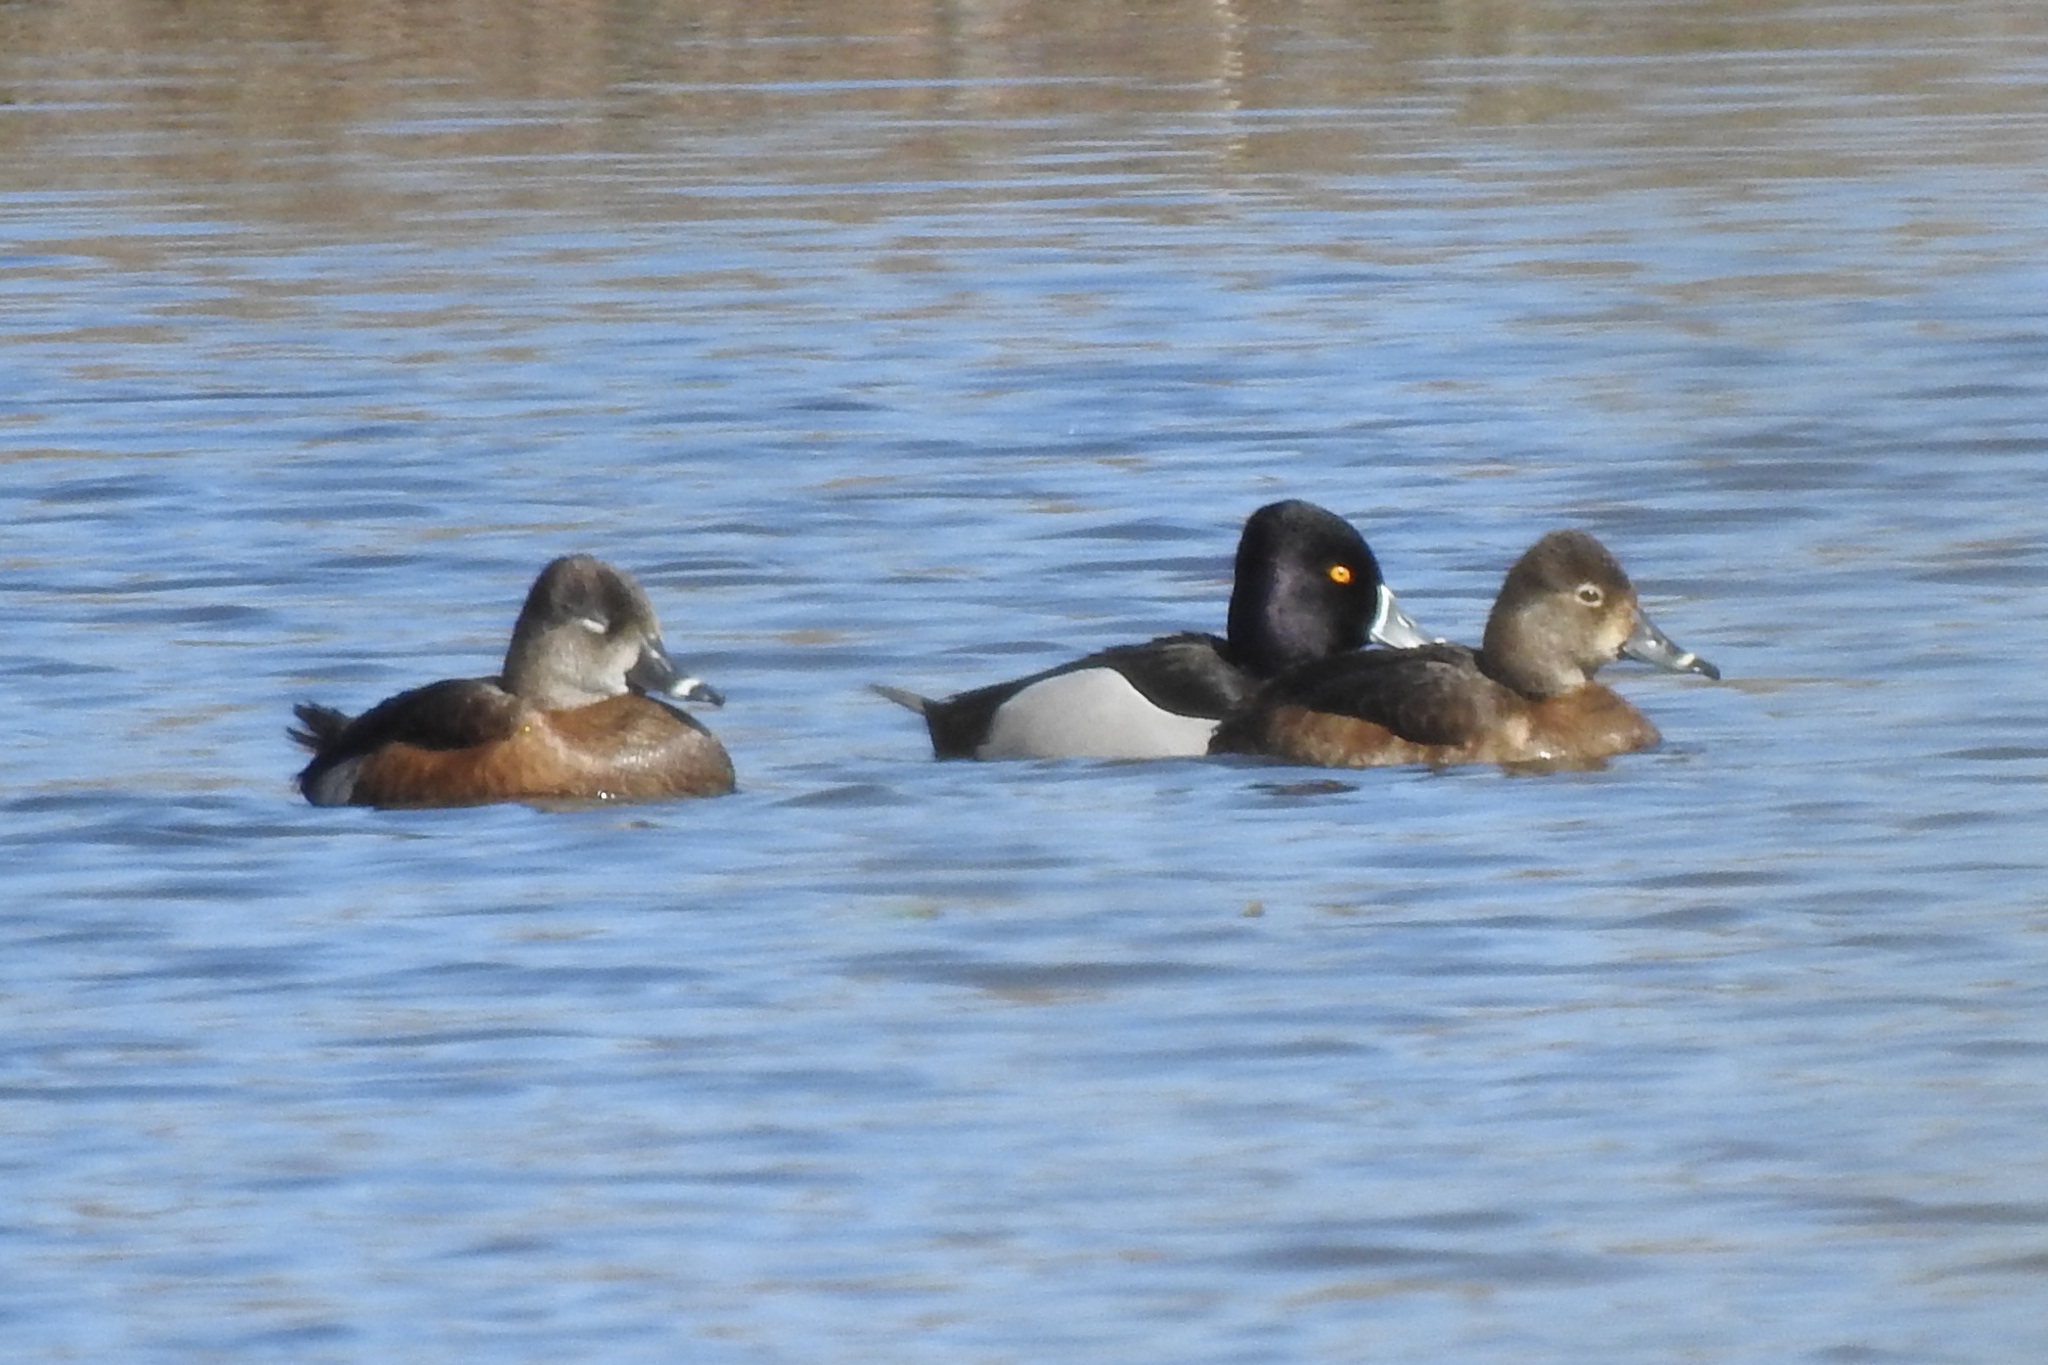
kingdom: Animalia
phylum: Chordata
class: Aves
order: Anseriformes
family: Anatidae
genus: Aythya
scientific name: Aythya collaris
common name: Ring-necked duck
